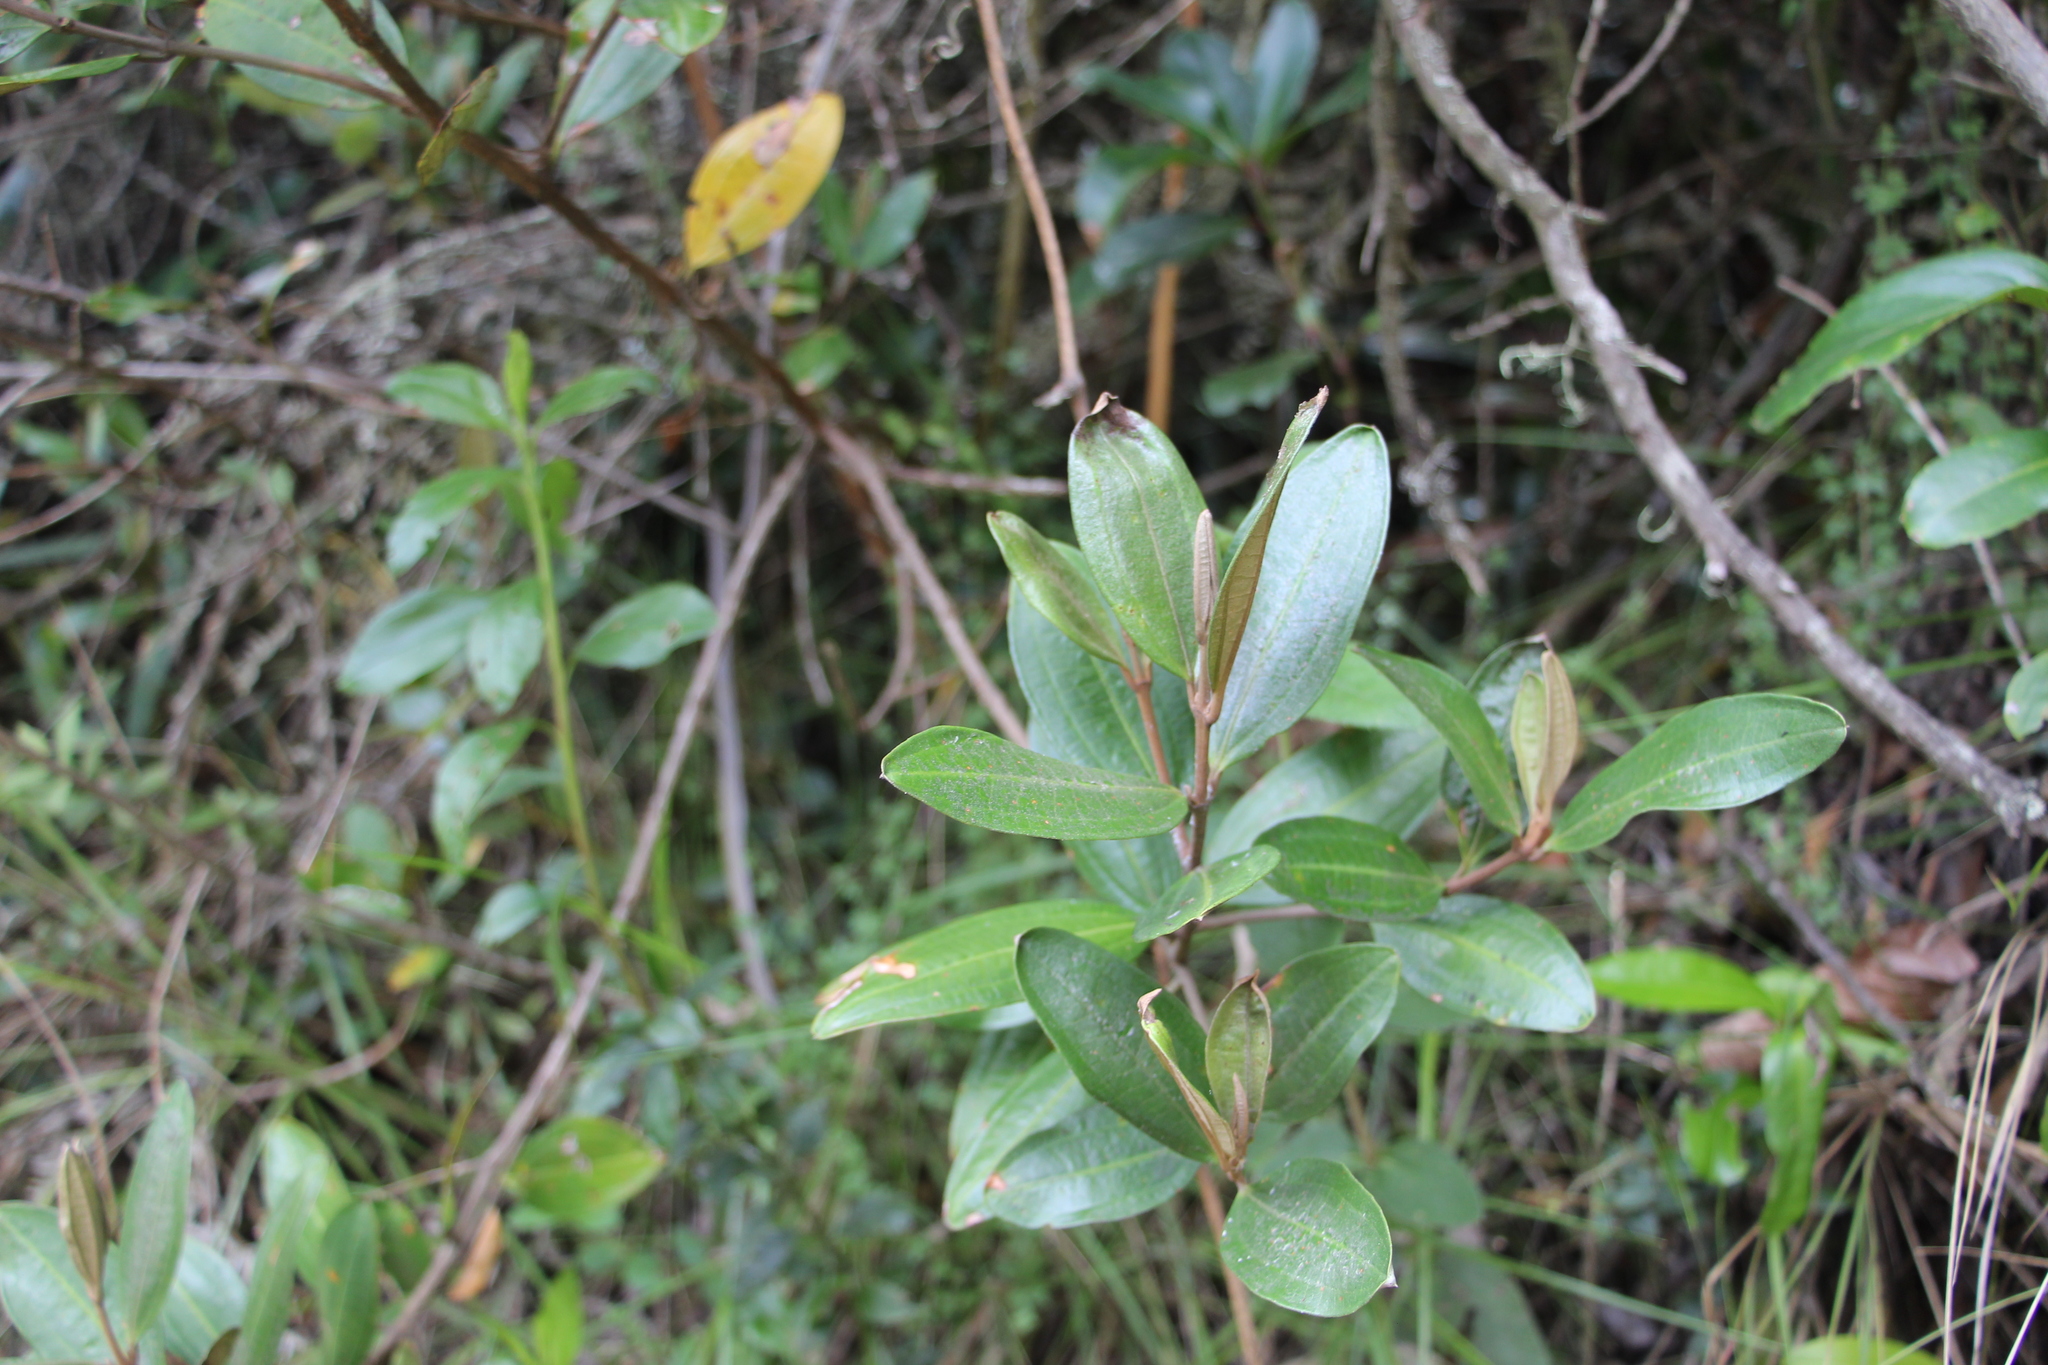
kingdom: Plantae
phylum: Tracheophyta
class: Magnoliopsida
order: Myrtales
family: Melastomataceae
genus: Miconia
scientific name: Miconia squamulosa
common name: Squamulose maya
